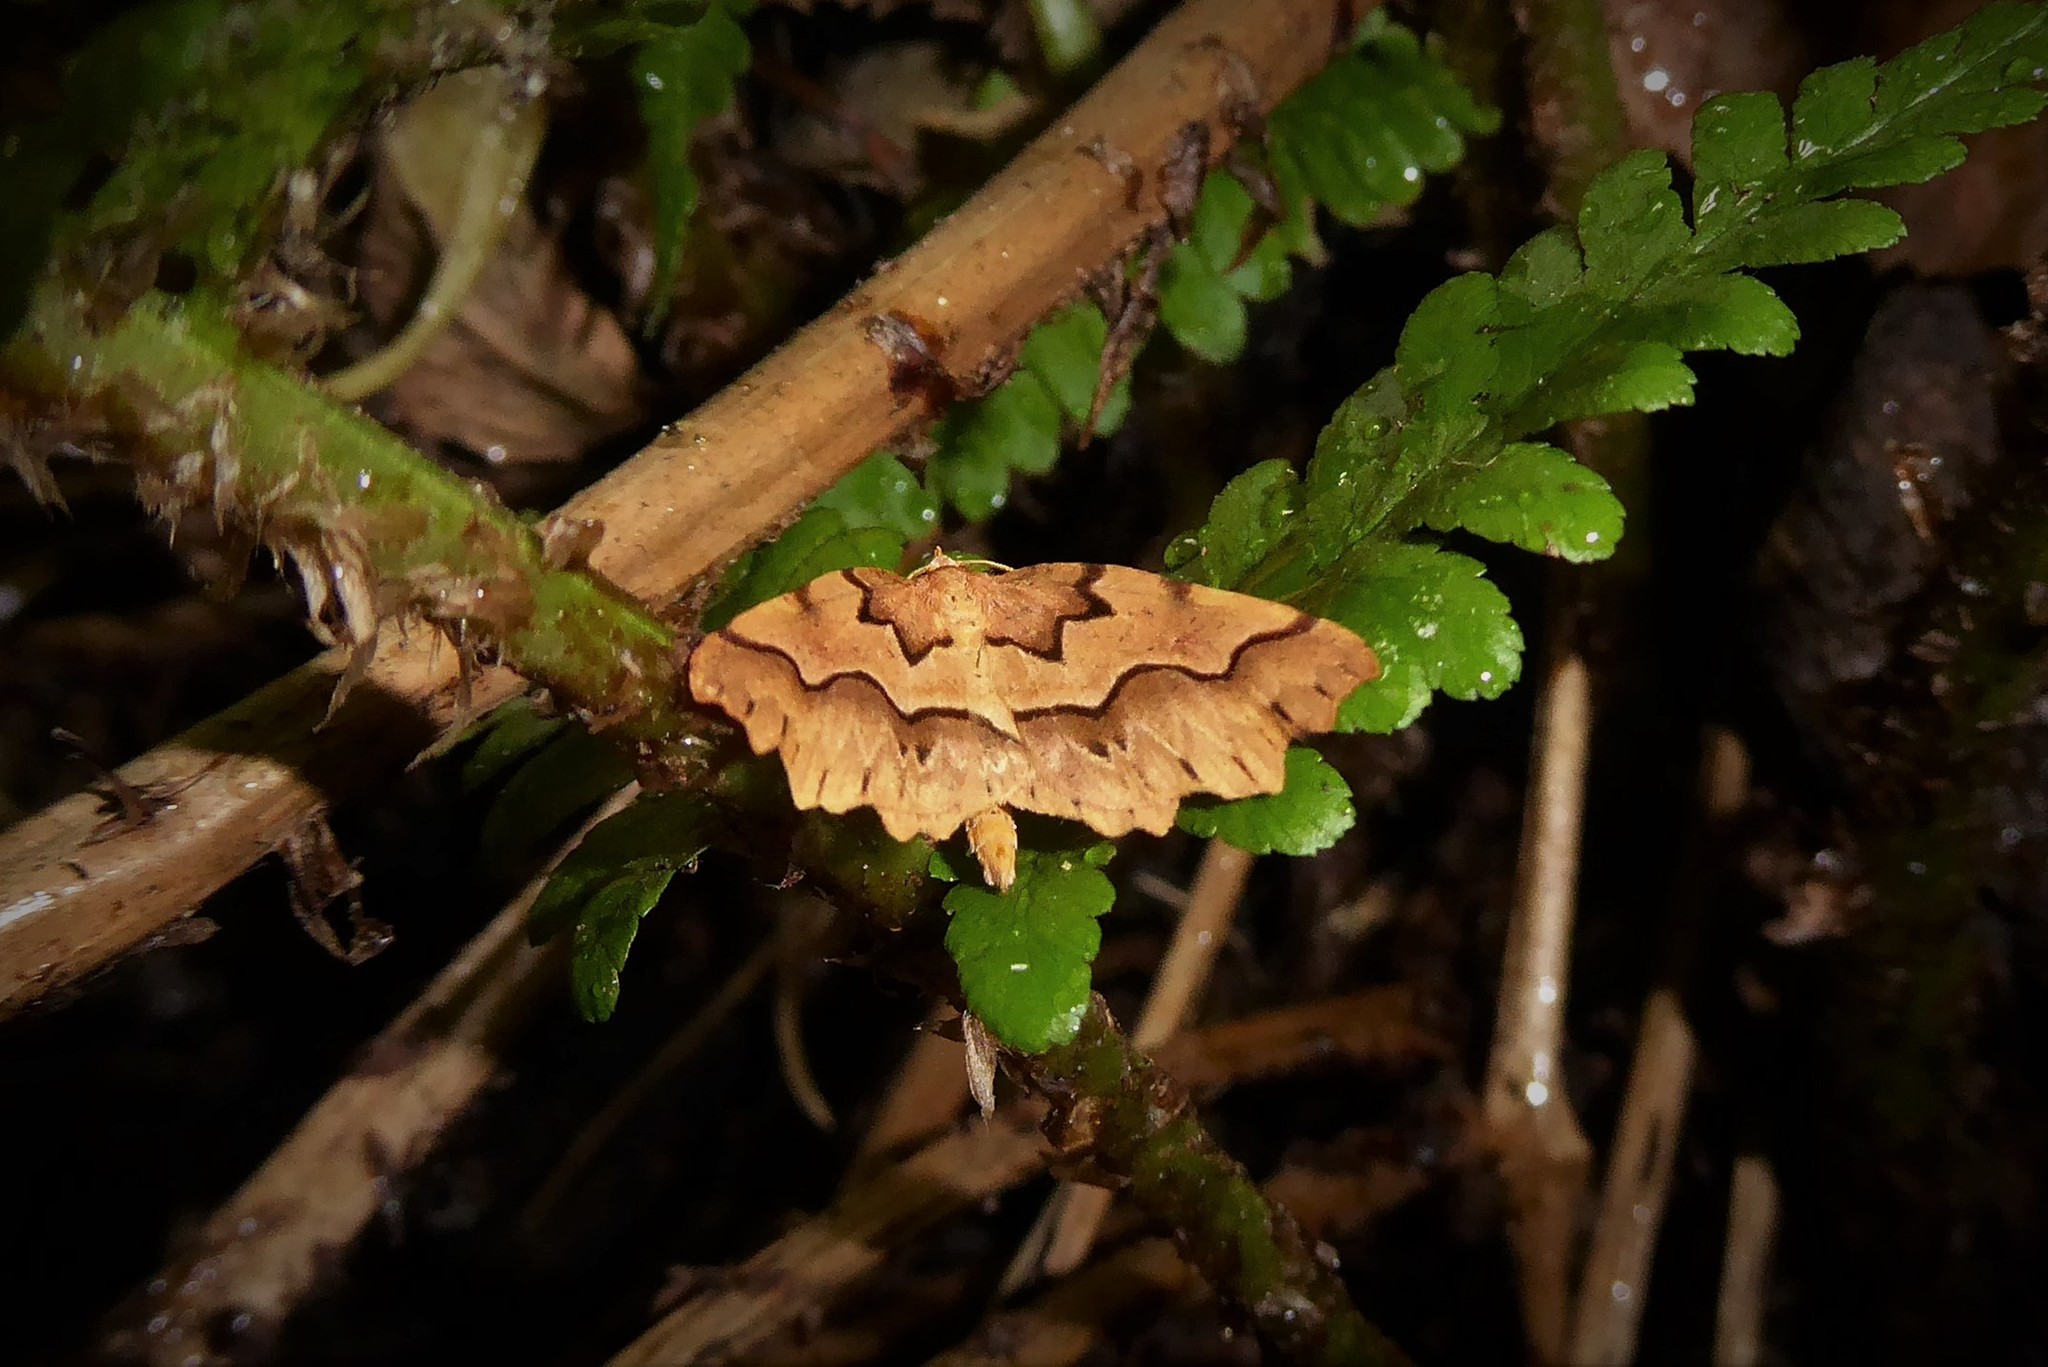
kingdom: Animalia
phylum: Arthropoda
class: Insecta
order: Lepidoptera
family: Geometridae
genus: Ischalis
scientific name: Ischalis fortinata
